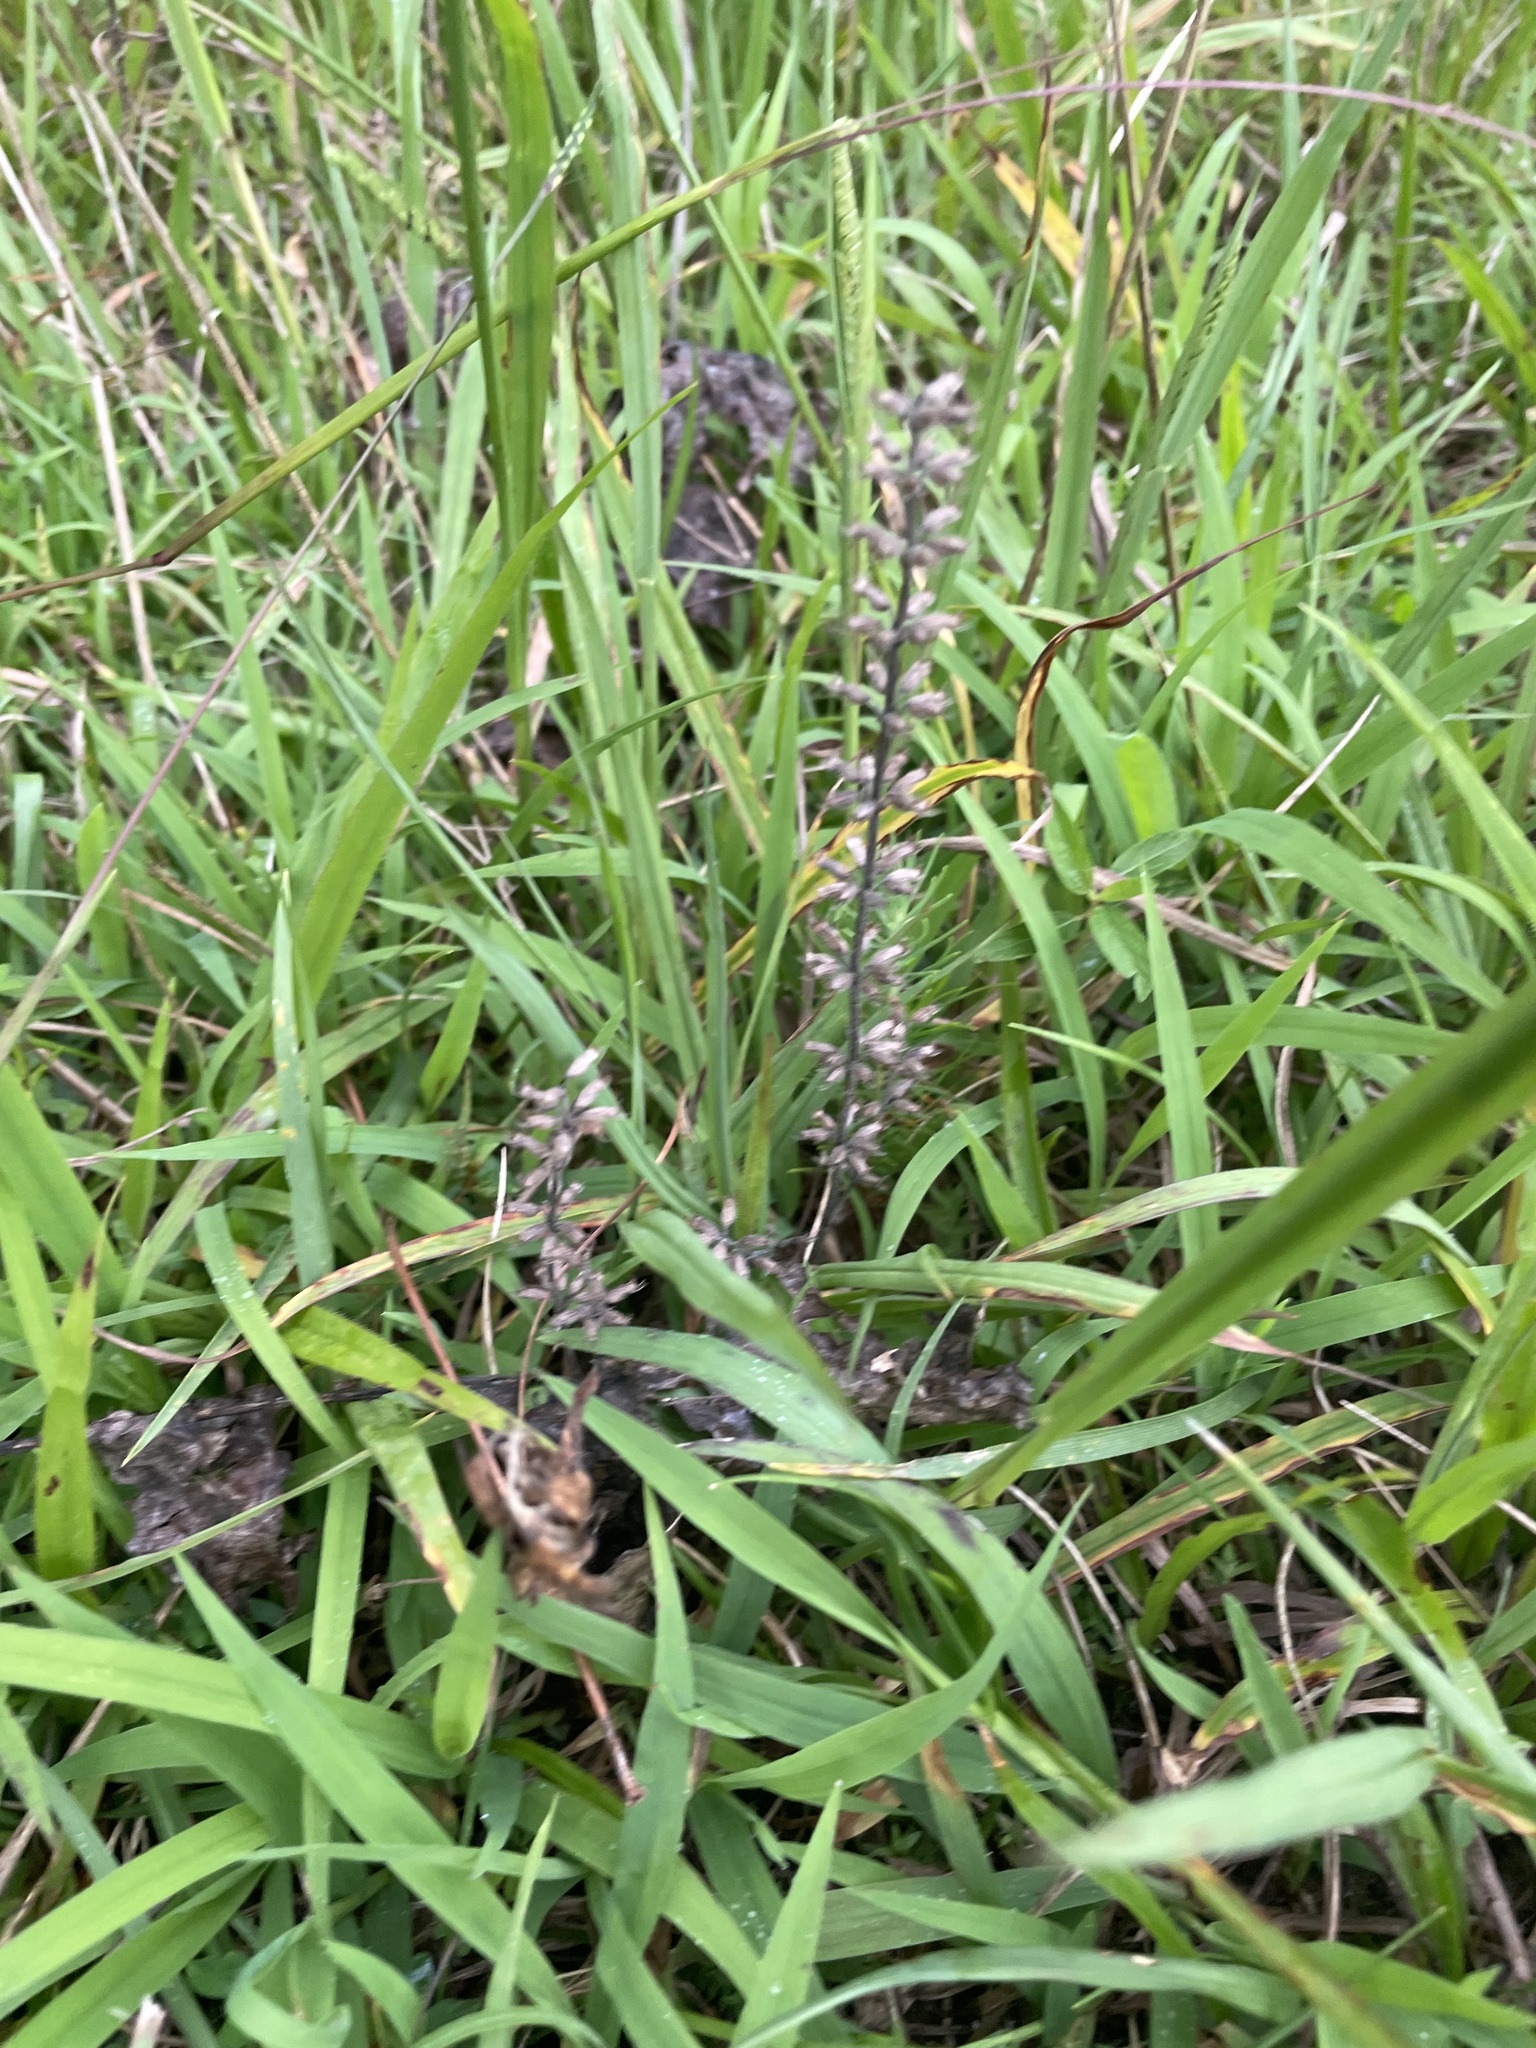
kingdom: Plantae
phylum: Tracheophyta
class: Magnoliopsida
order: Lamiales
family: Lamiaceae
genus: Salvia
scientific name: Salvia lyrata
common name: Cancerweed
